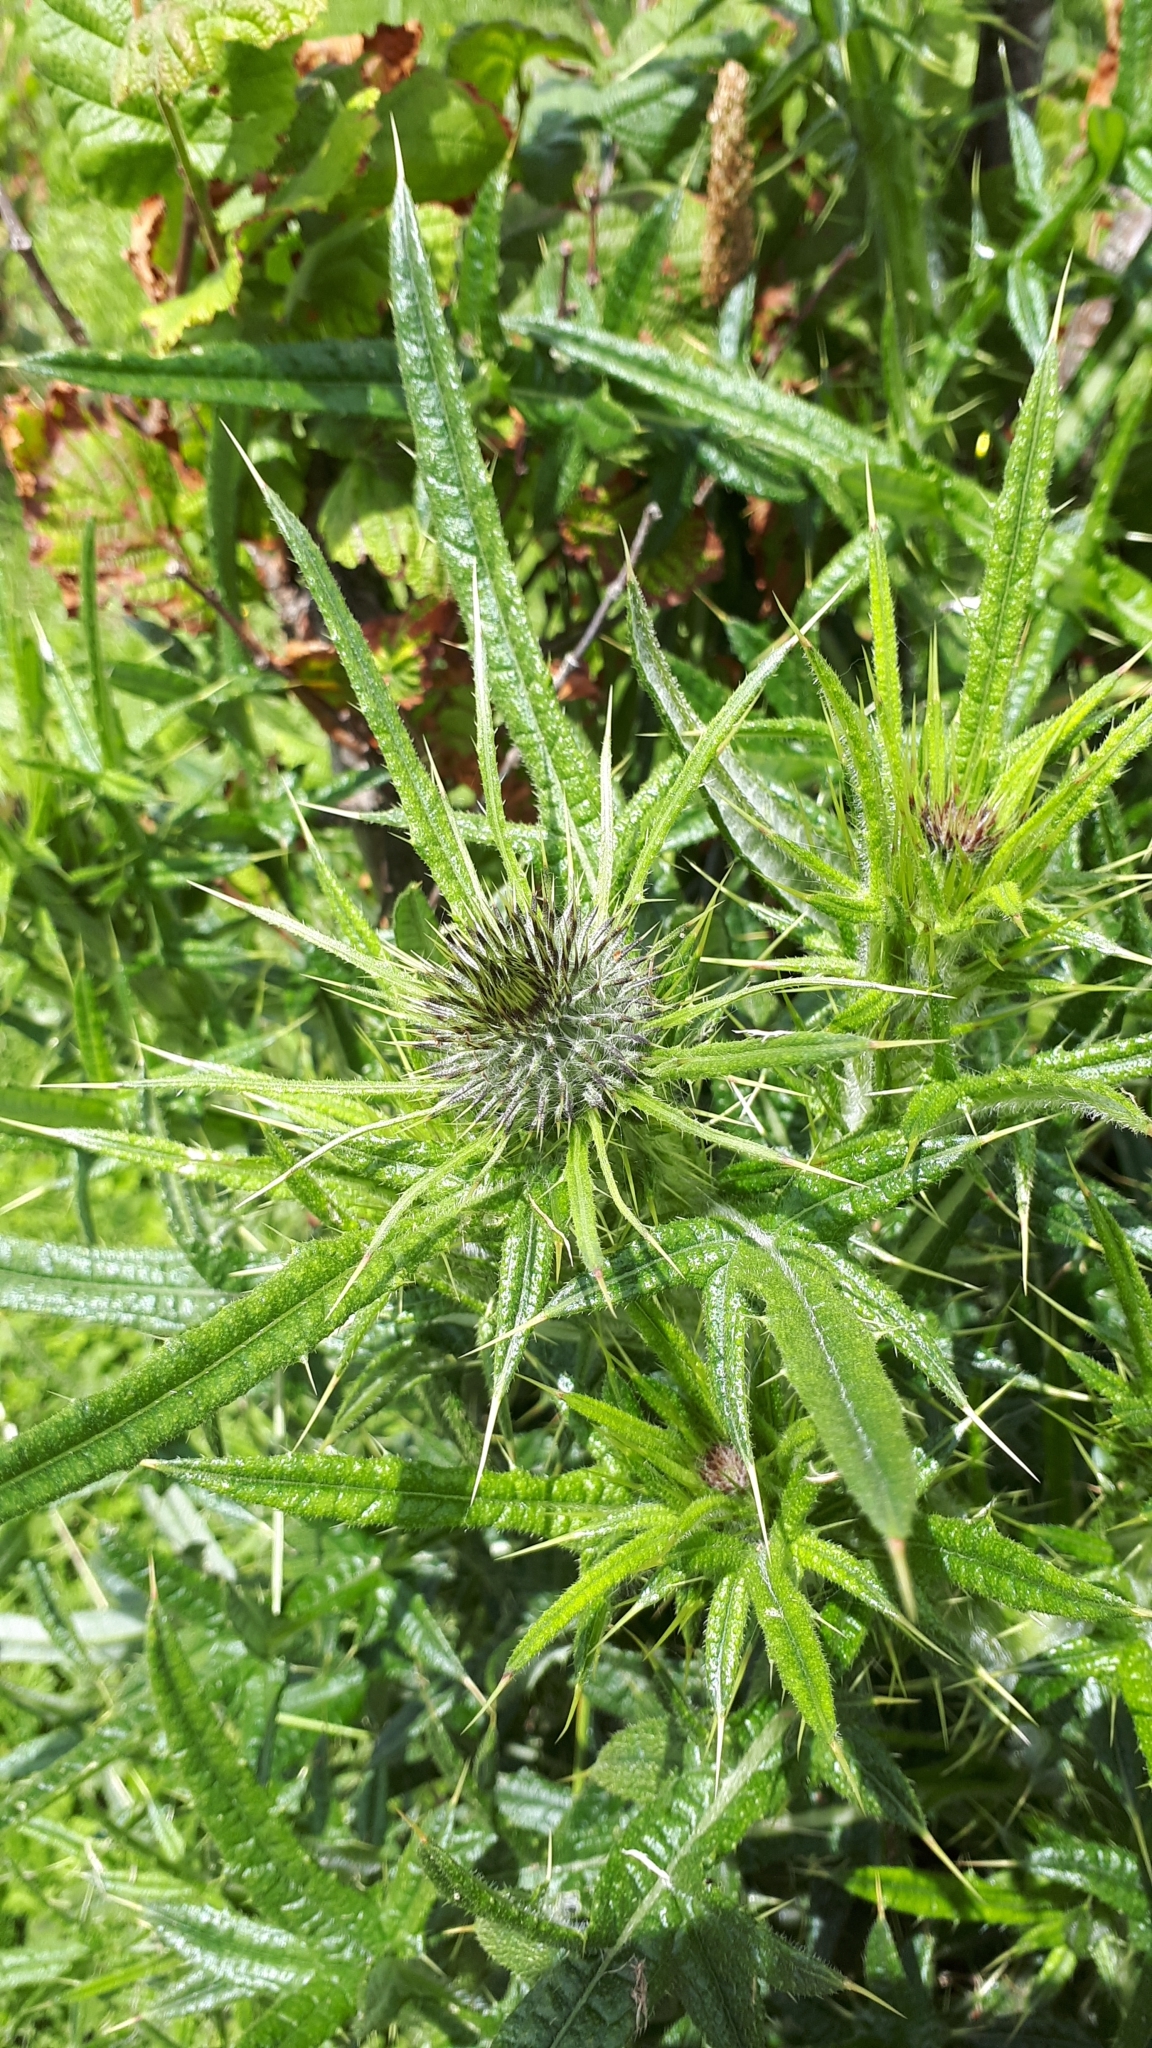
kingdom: Plantae
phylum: Tracheophyta
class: Magnoliopsida
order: Asterales
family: Asteraceae
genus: Cirsium
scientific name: Cirsium vulgare
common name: Bull thistle
